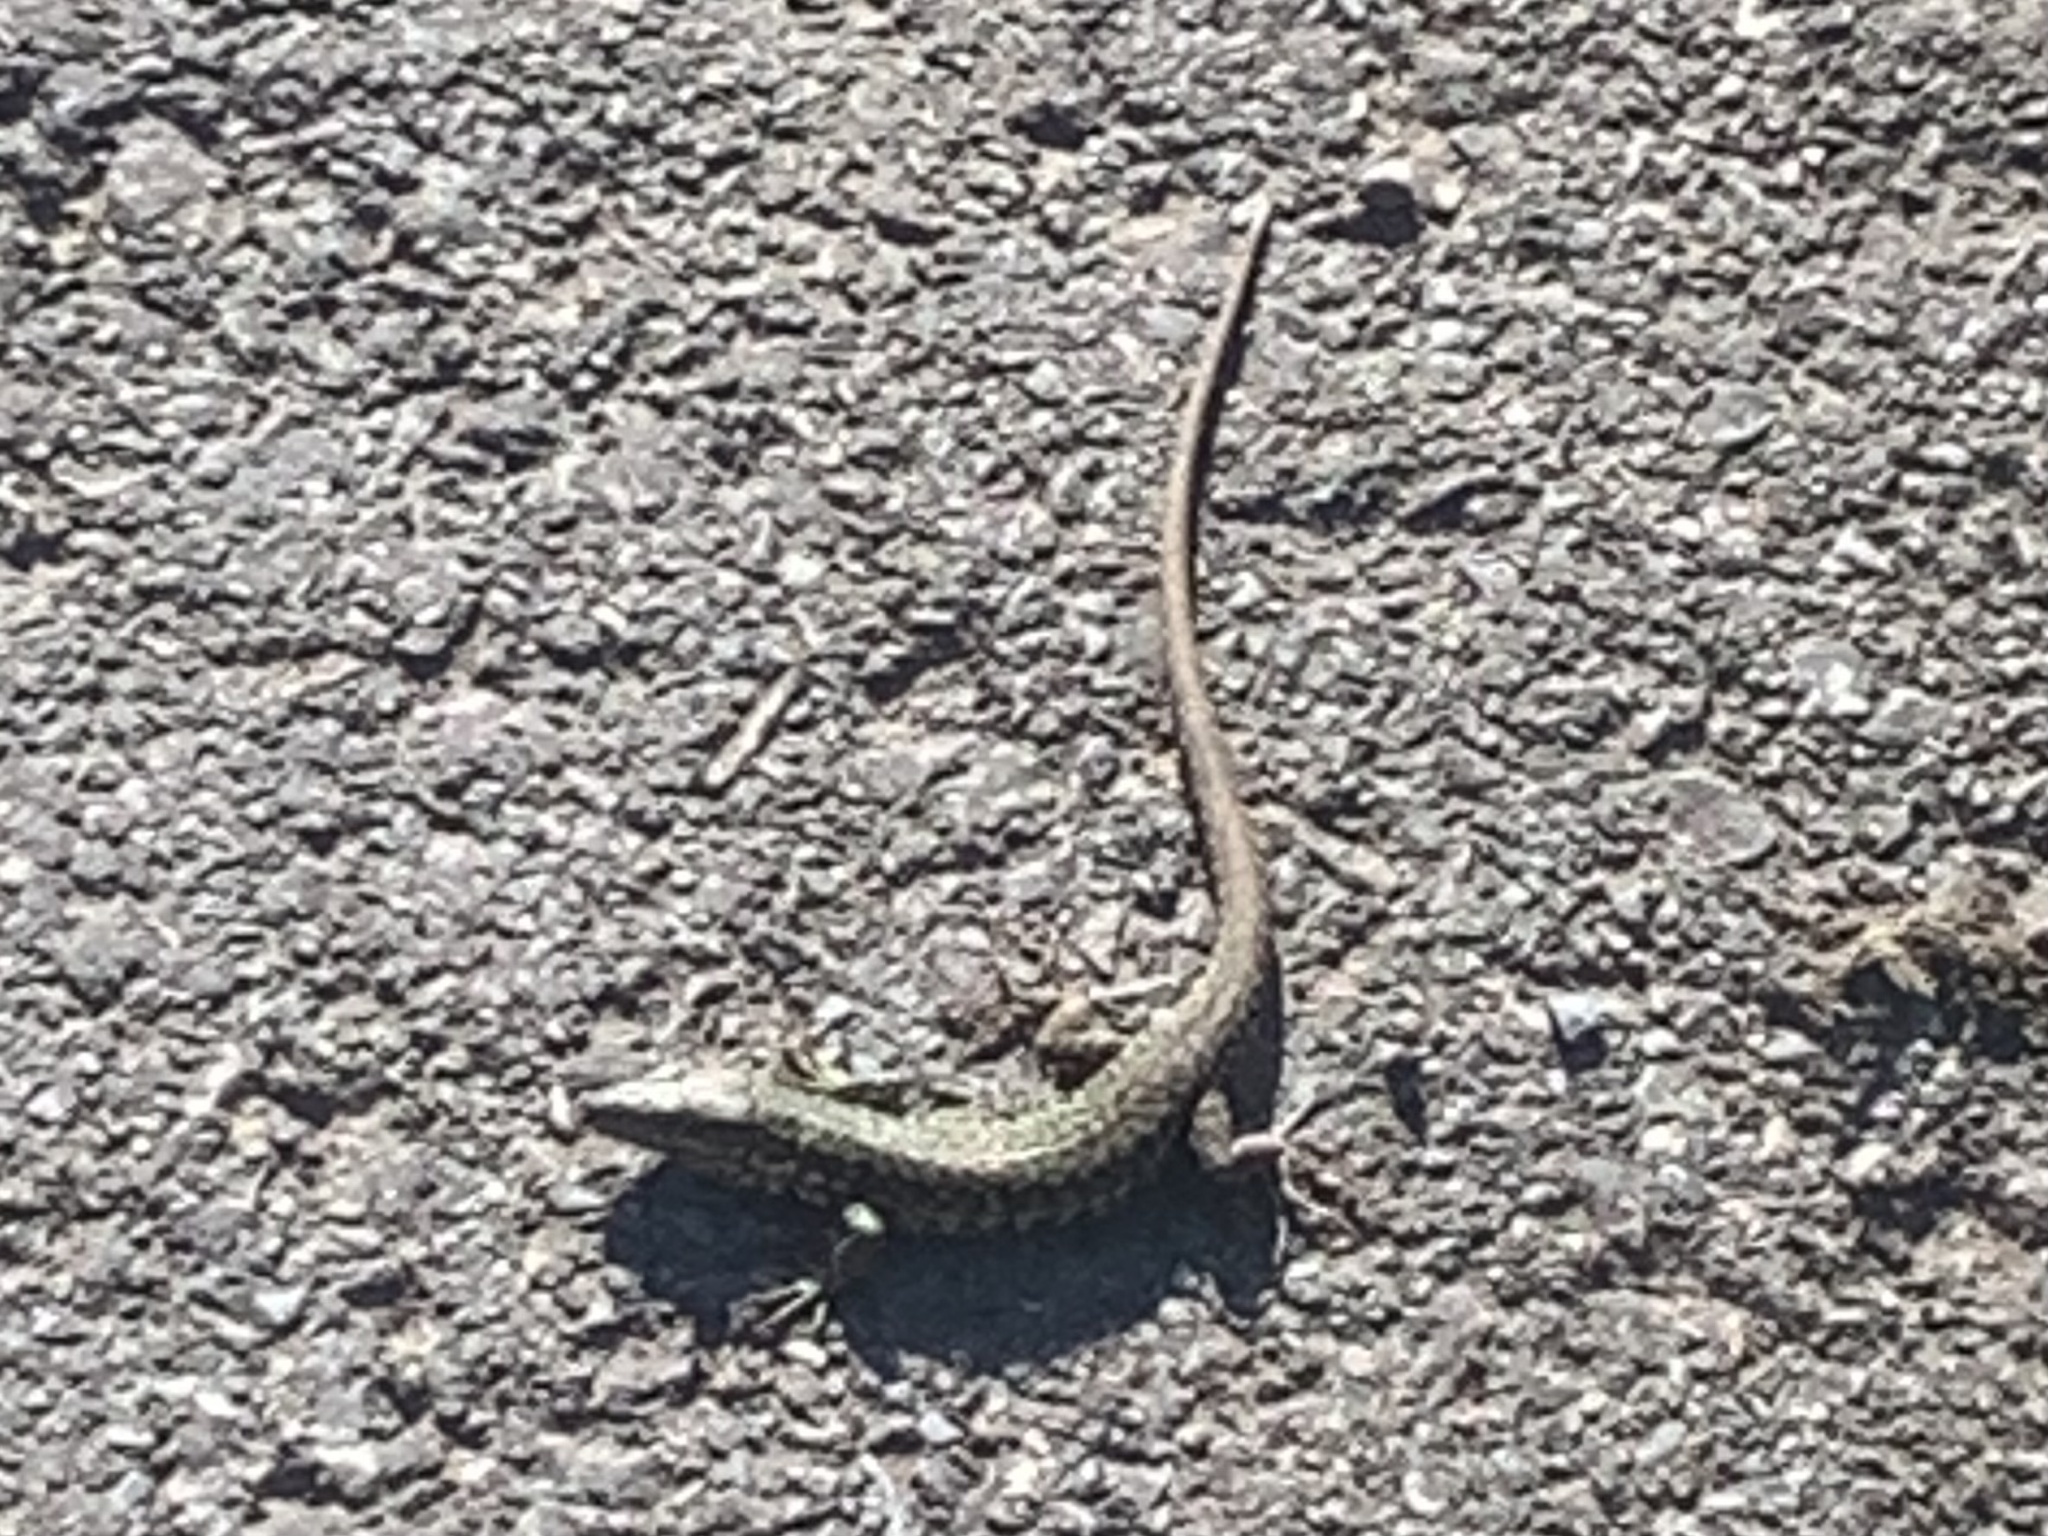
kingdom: Animalia
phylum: Chordata
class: Squamata
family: Lacertidae
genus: Podarcis
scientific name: Podarcis muralis
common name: Common wall lizard
